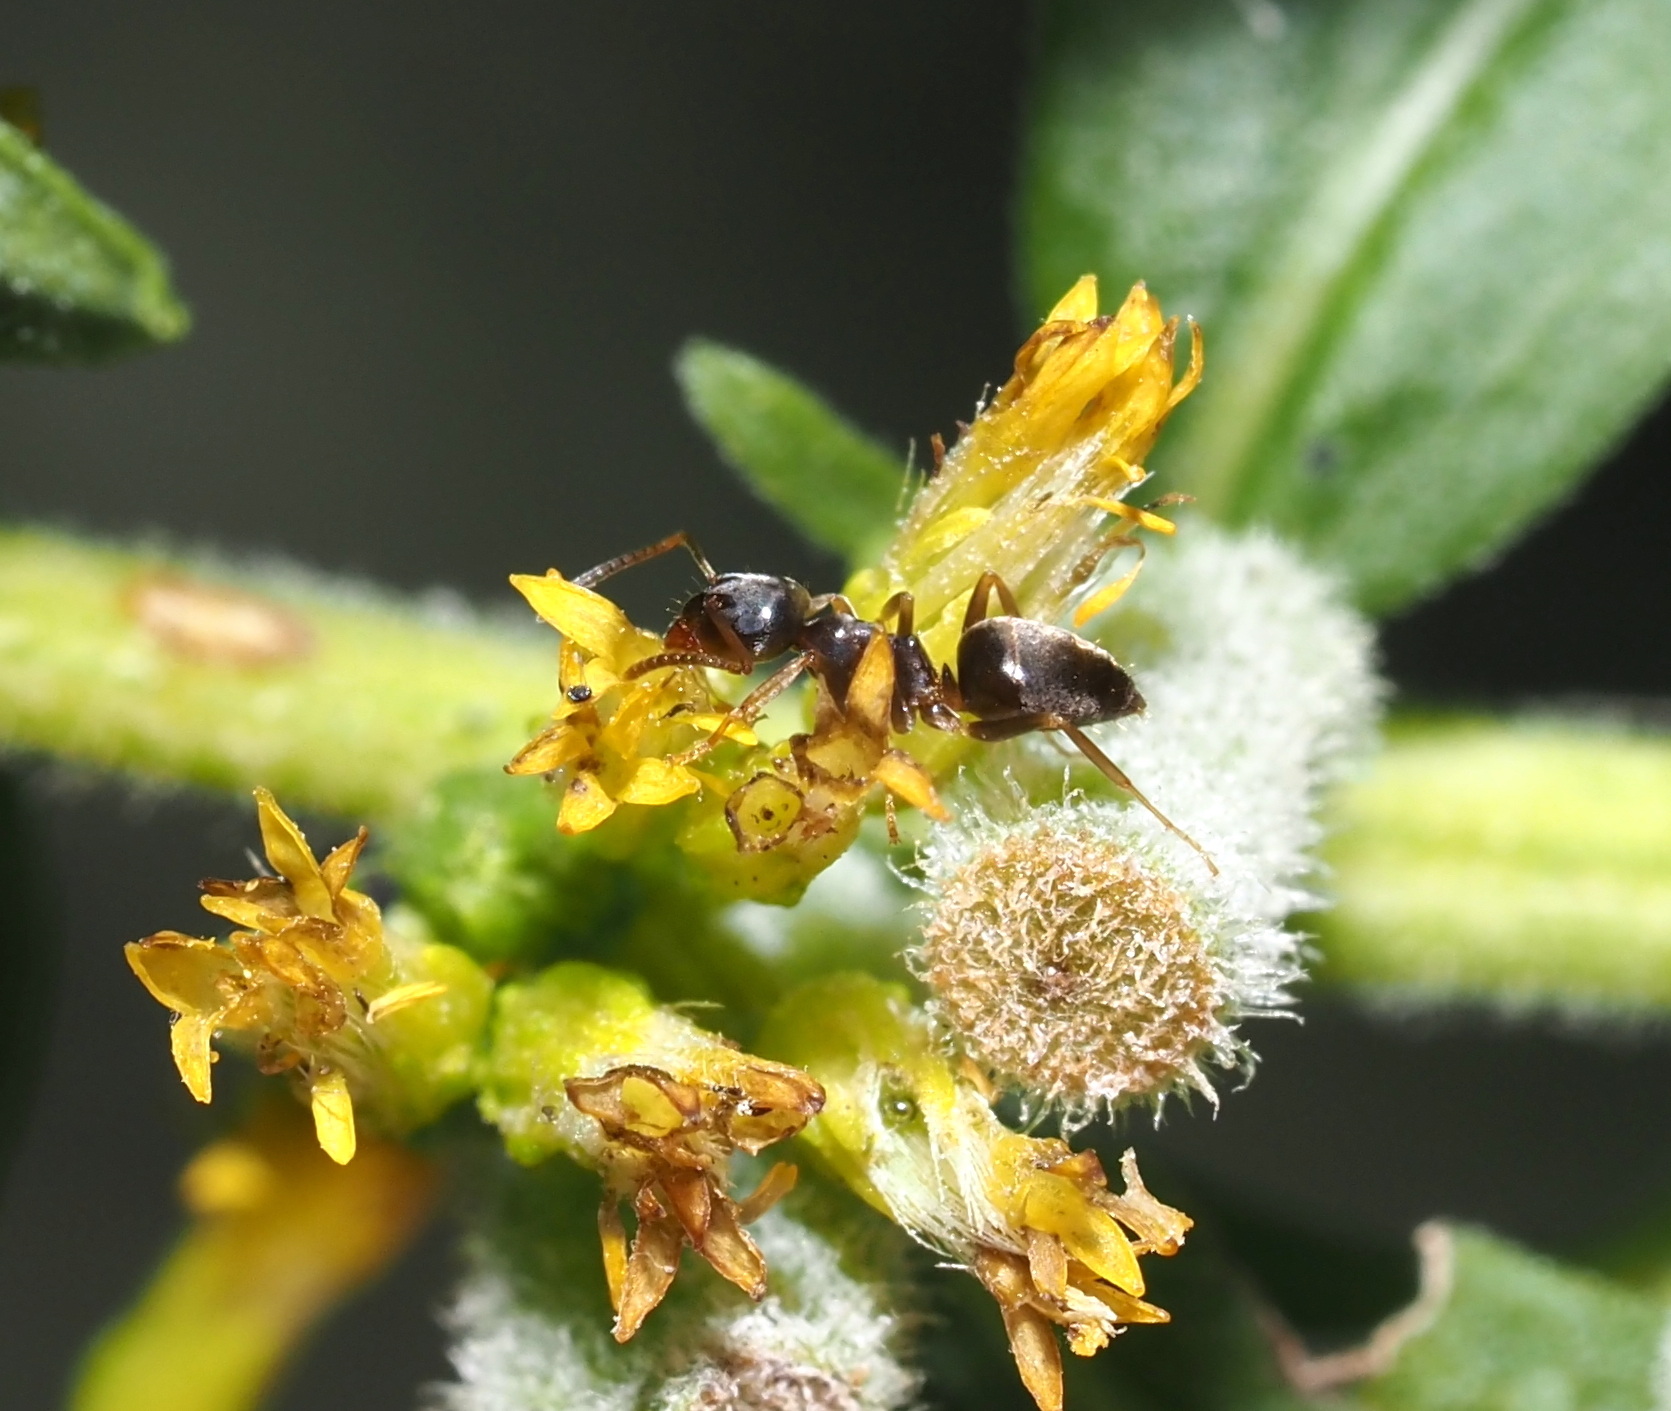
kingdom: Animalia
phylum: Arthropoda
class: Insecta
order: Hymenoptera
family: Formicidae
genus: Lasius
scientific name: Lasius americanus
